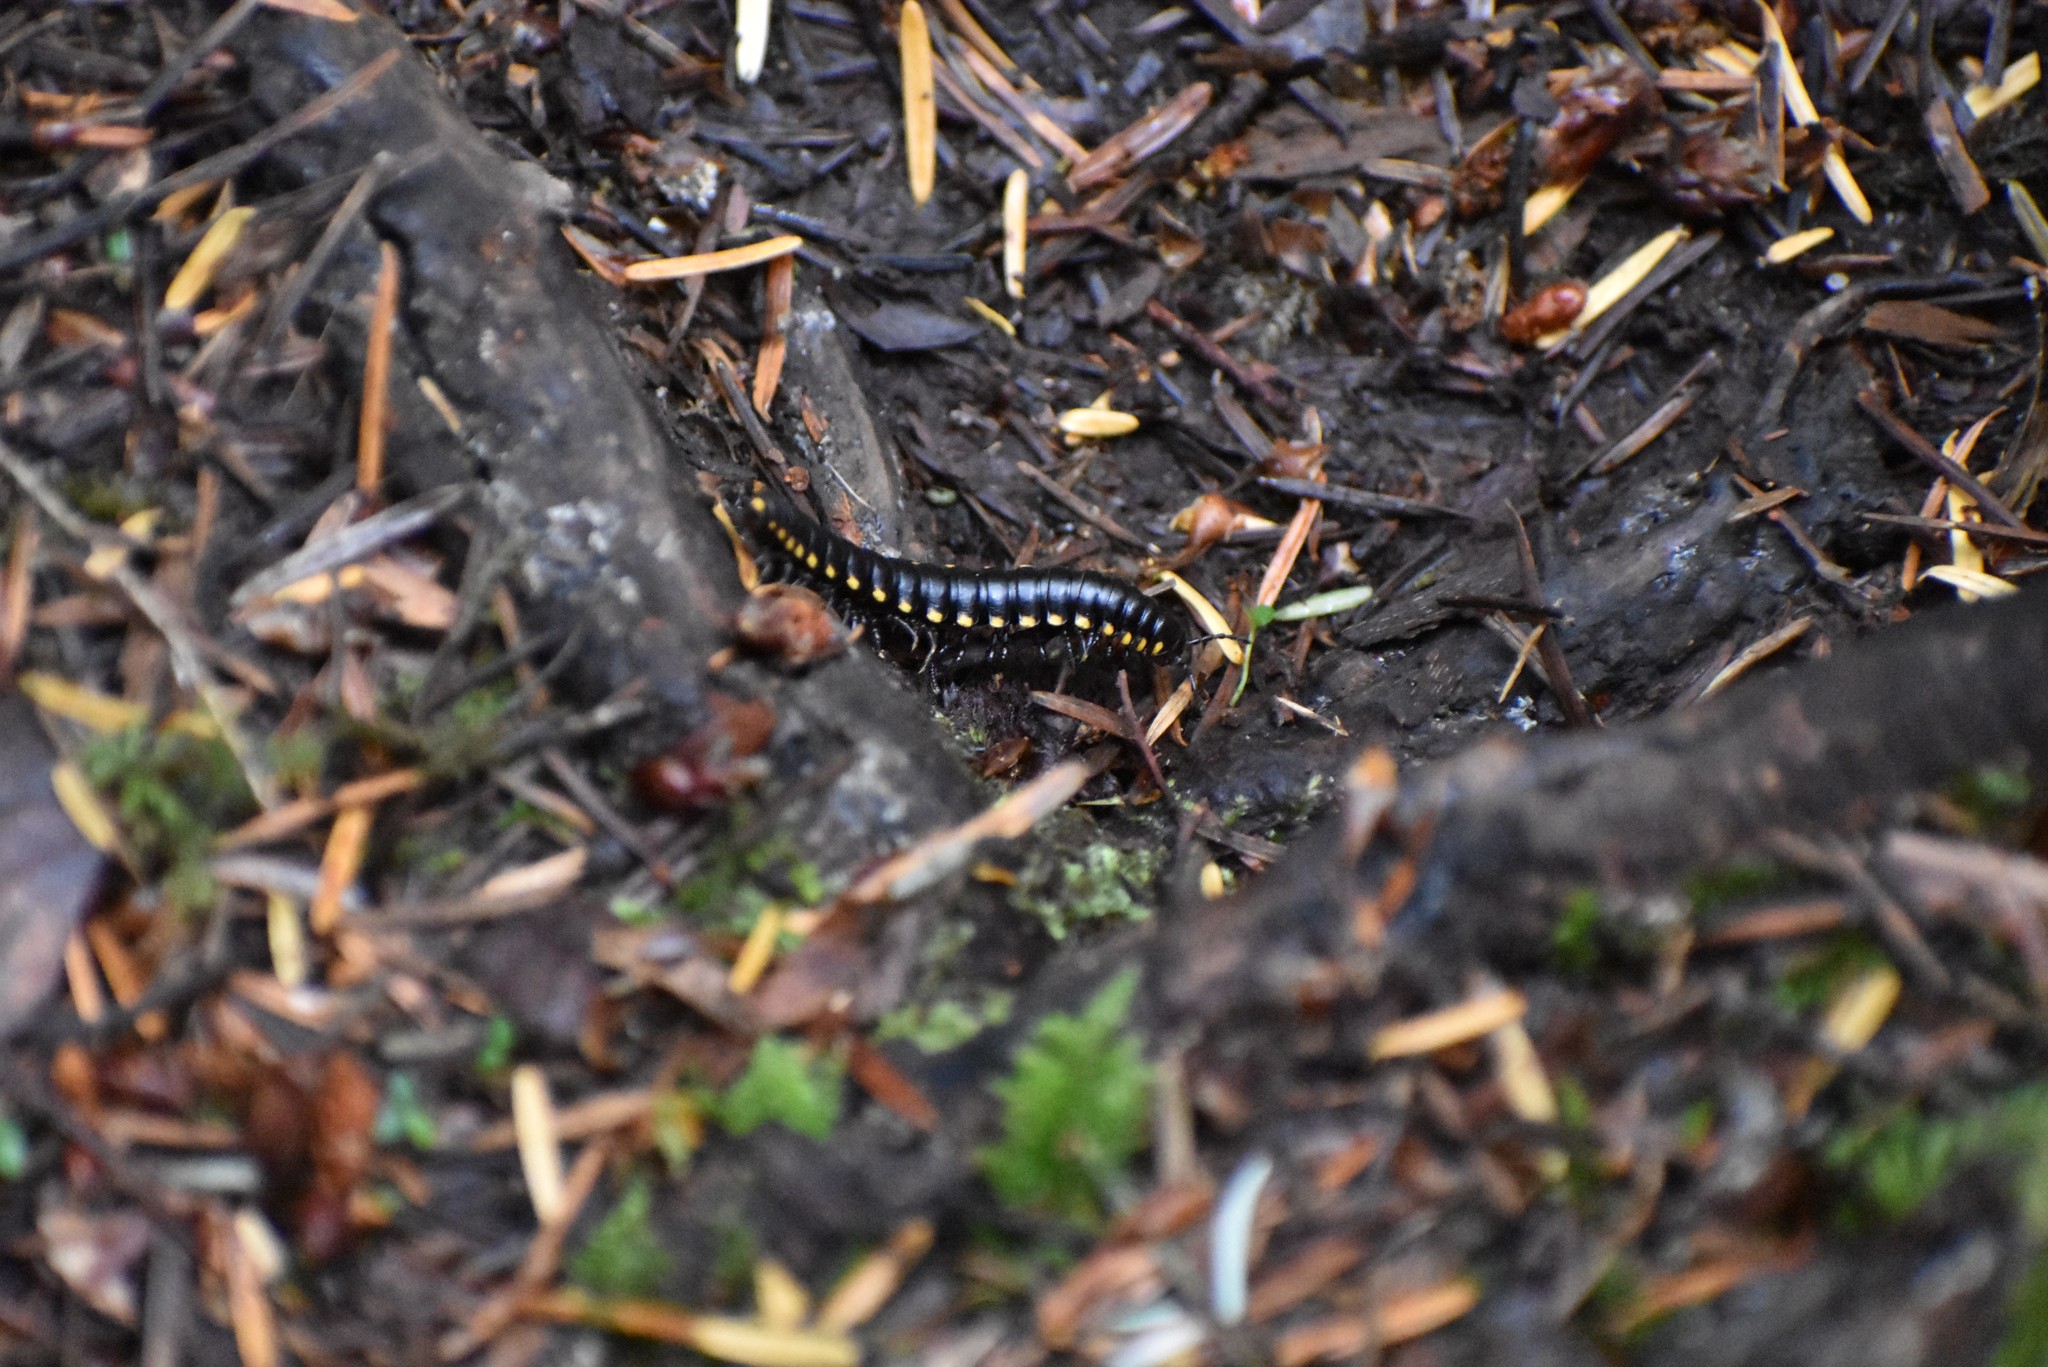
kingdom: Animalia
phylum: Arthropoda
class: Diplopoda
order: Polydesmida
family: Xystodesmidae
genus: Harpaphe
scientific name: Harpaphe haydeniana
